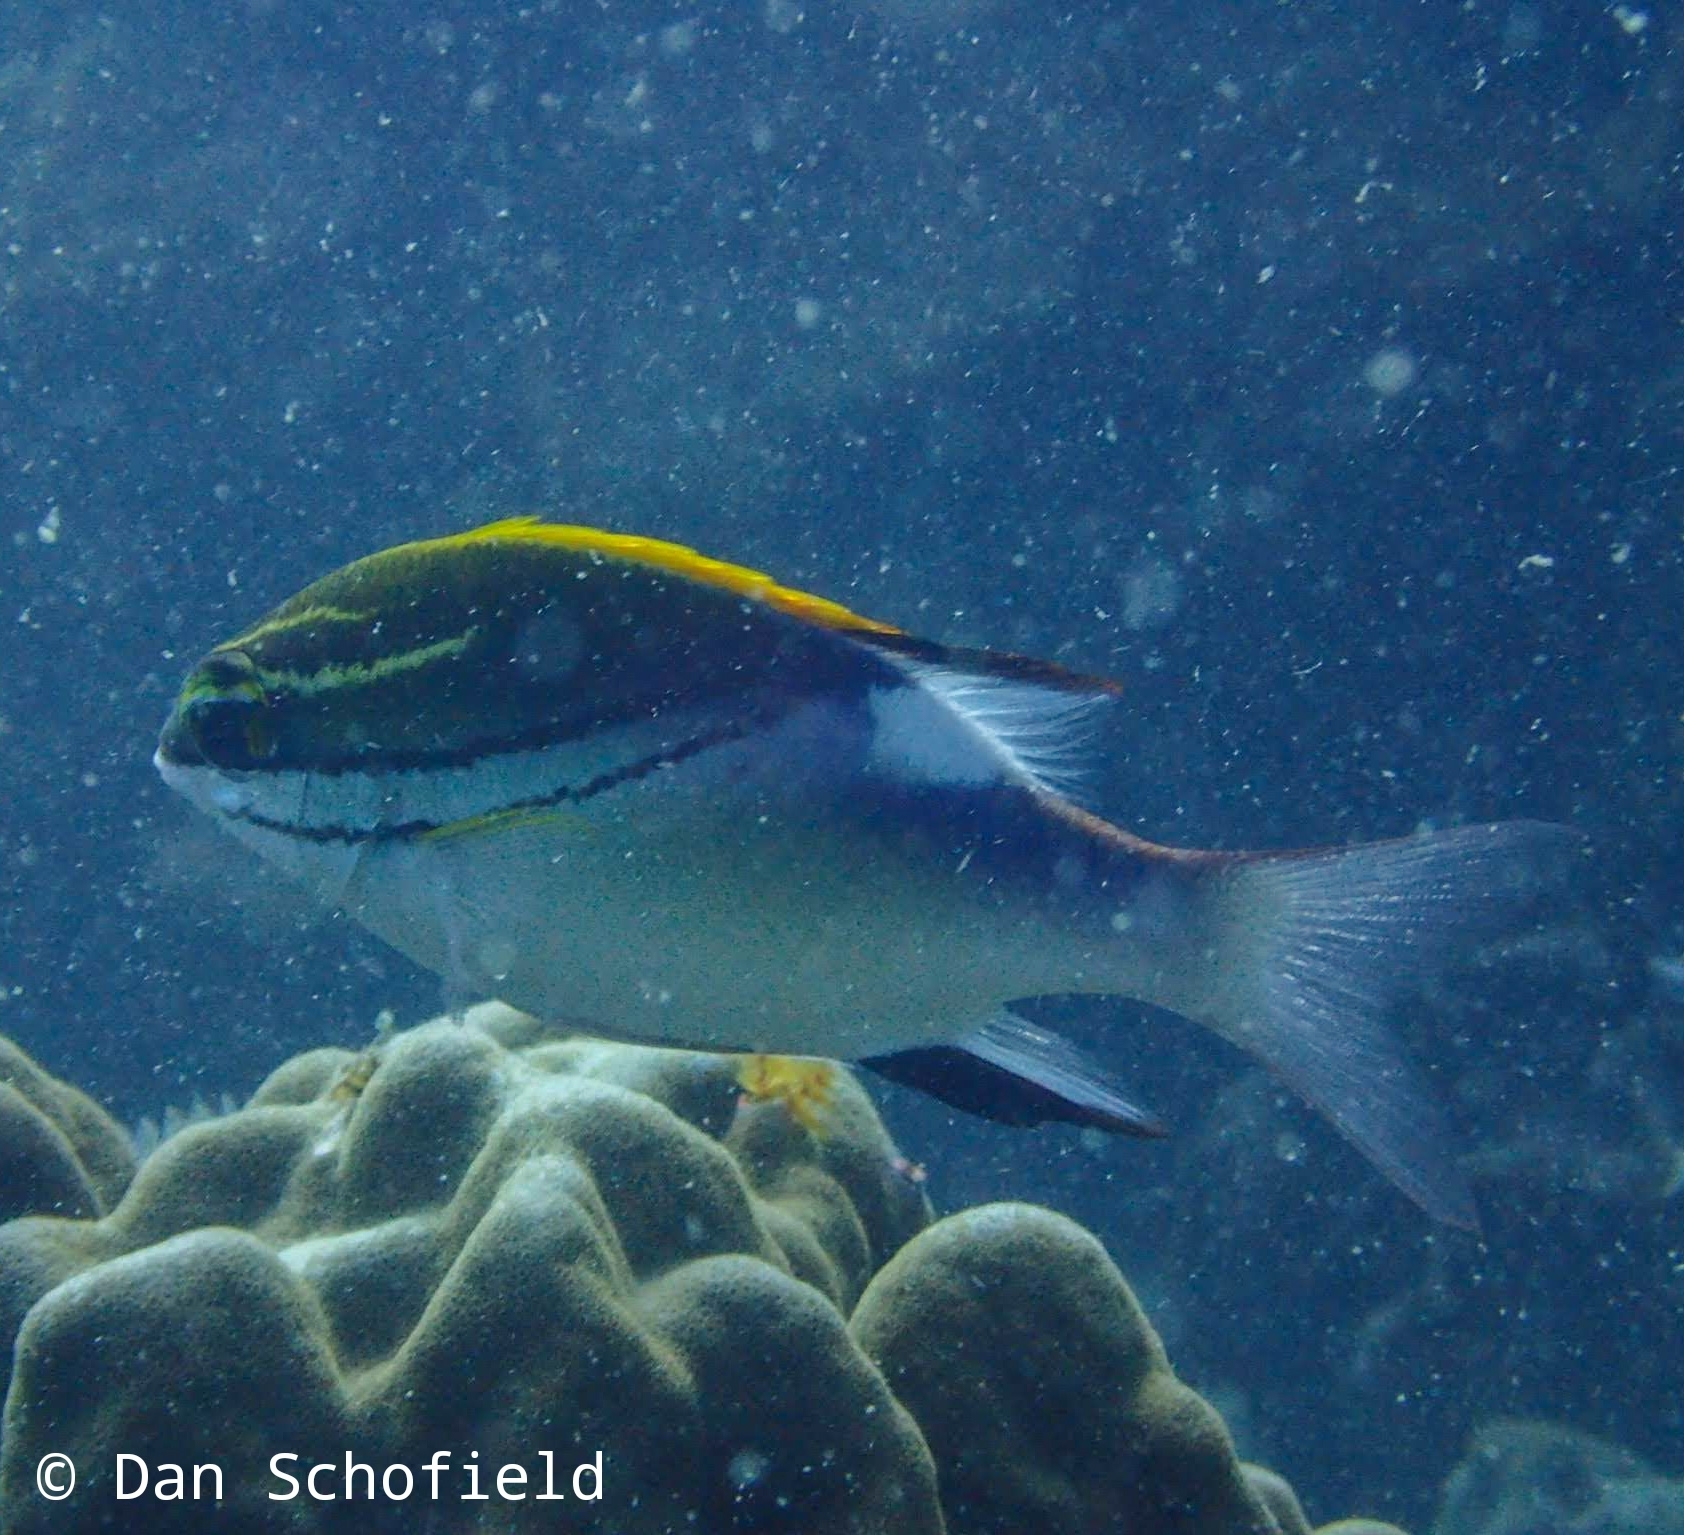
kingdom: Animalia
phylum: Chordata
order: Perciformes
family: Nemipteridae
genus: Scolopsis
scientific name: Scolopsis bilineata
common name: Two-lined monocle bream
